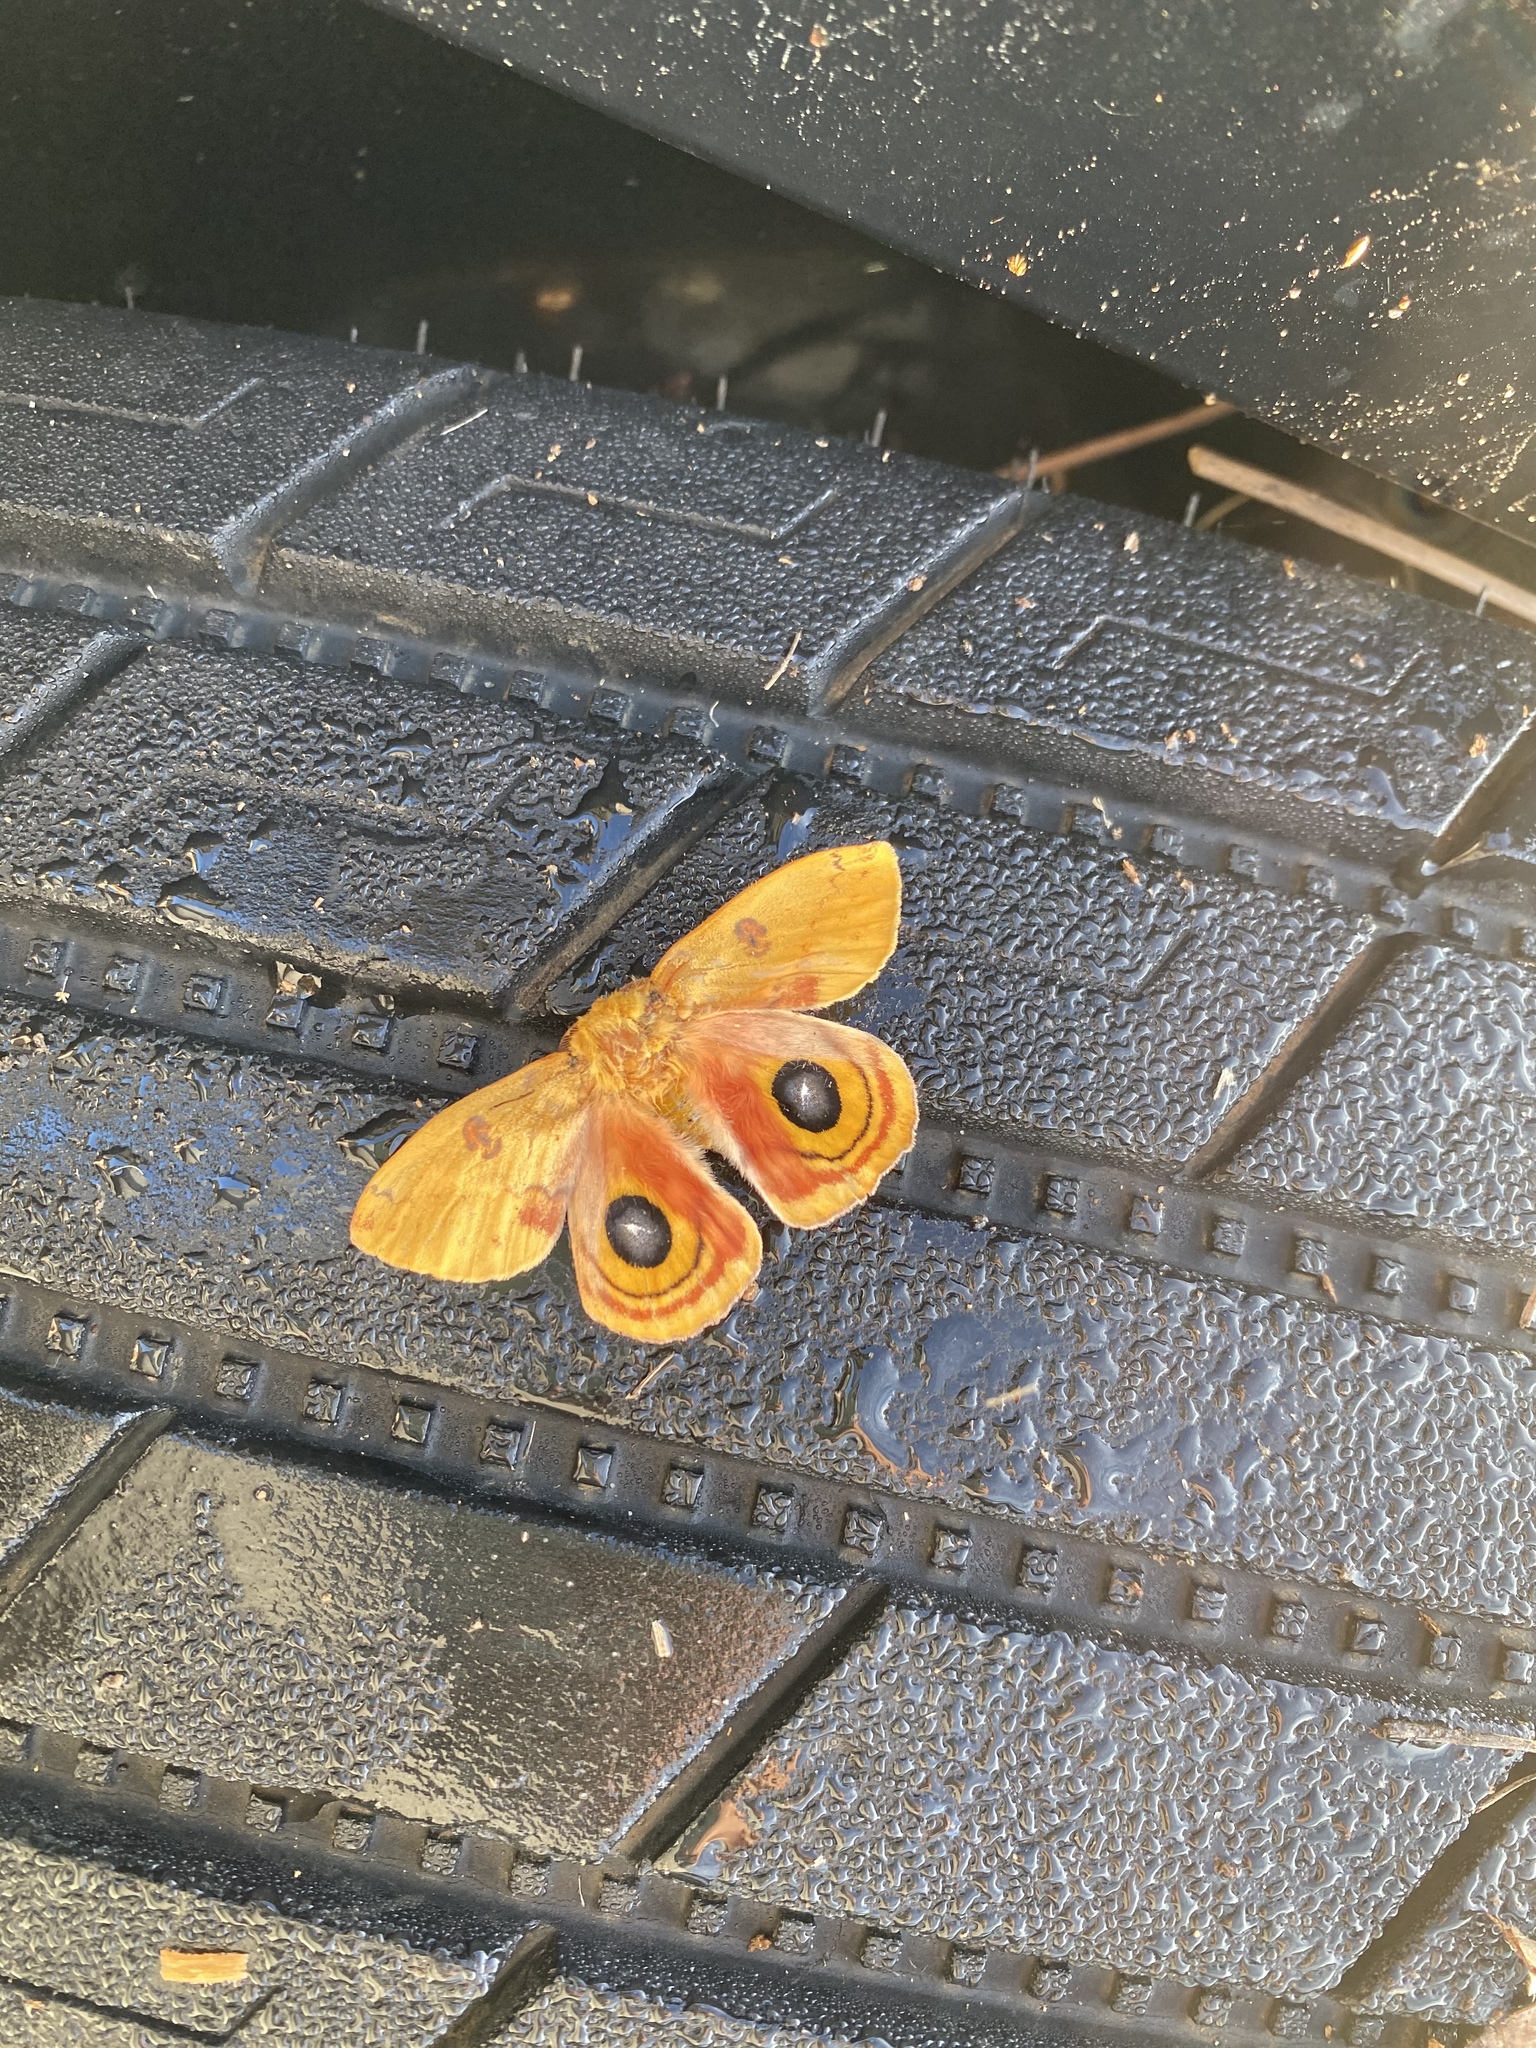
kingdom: Animalia
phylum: Arthropoda
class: Insecta
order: Lepidoptera
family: Saturniidae
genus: Automeris
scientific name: Automeris io
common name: Io moth
